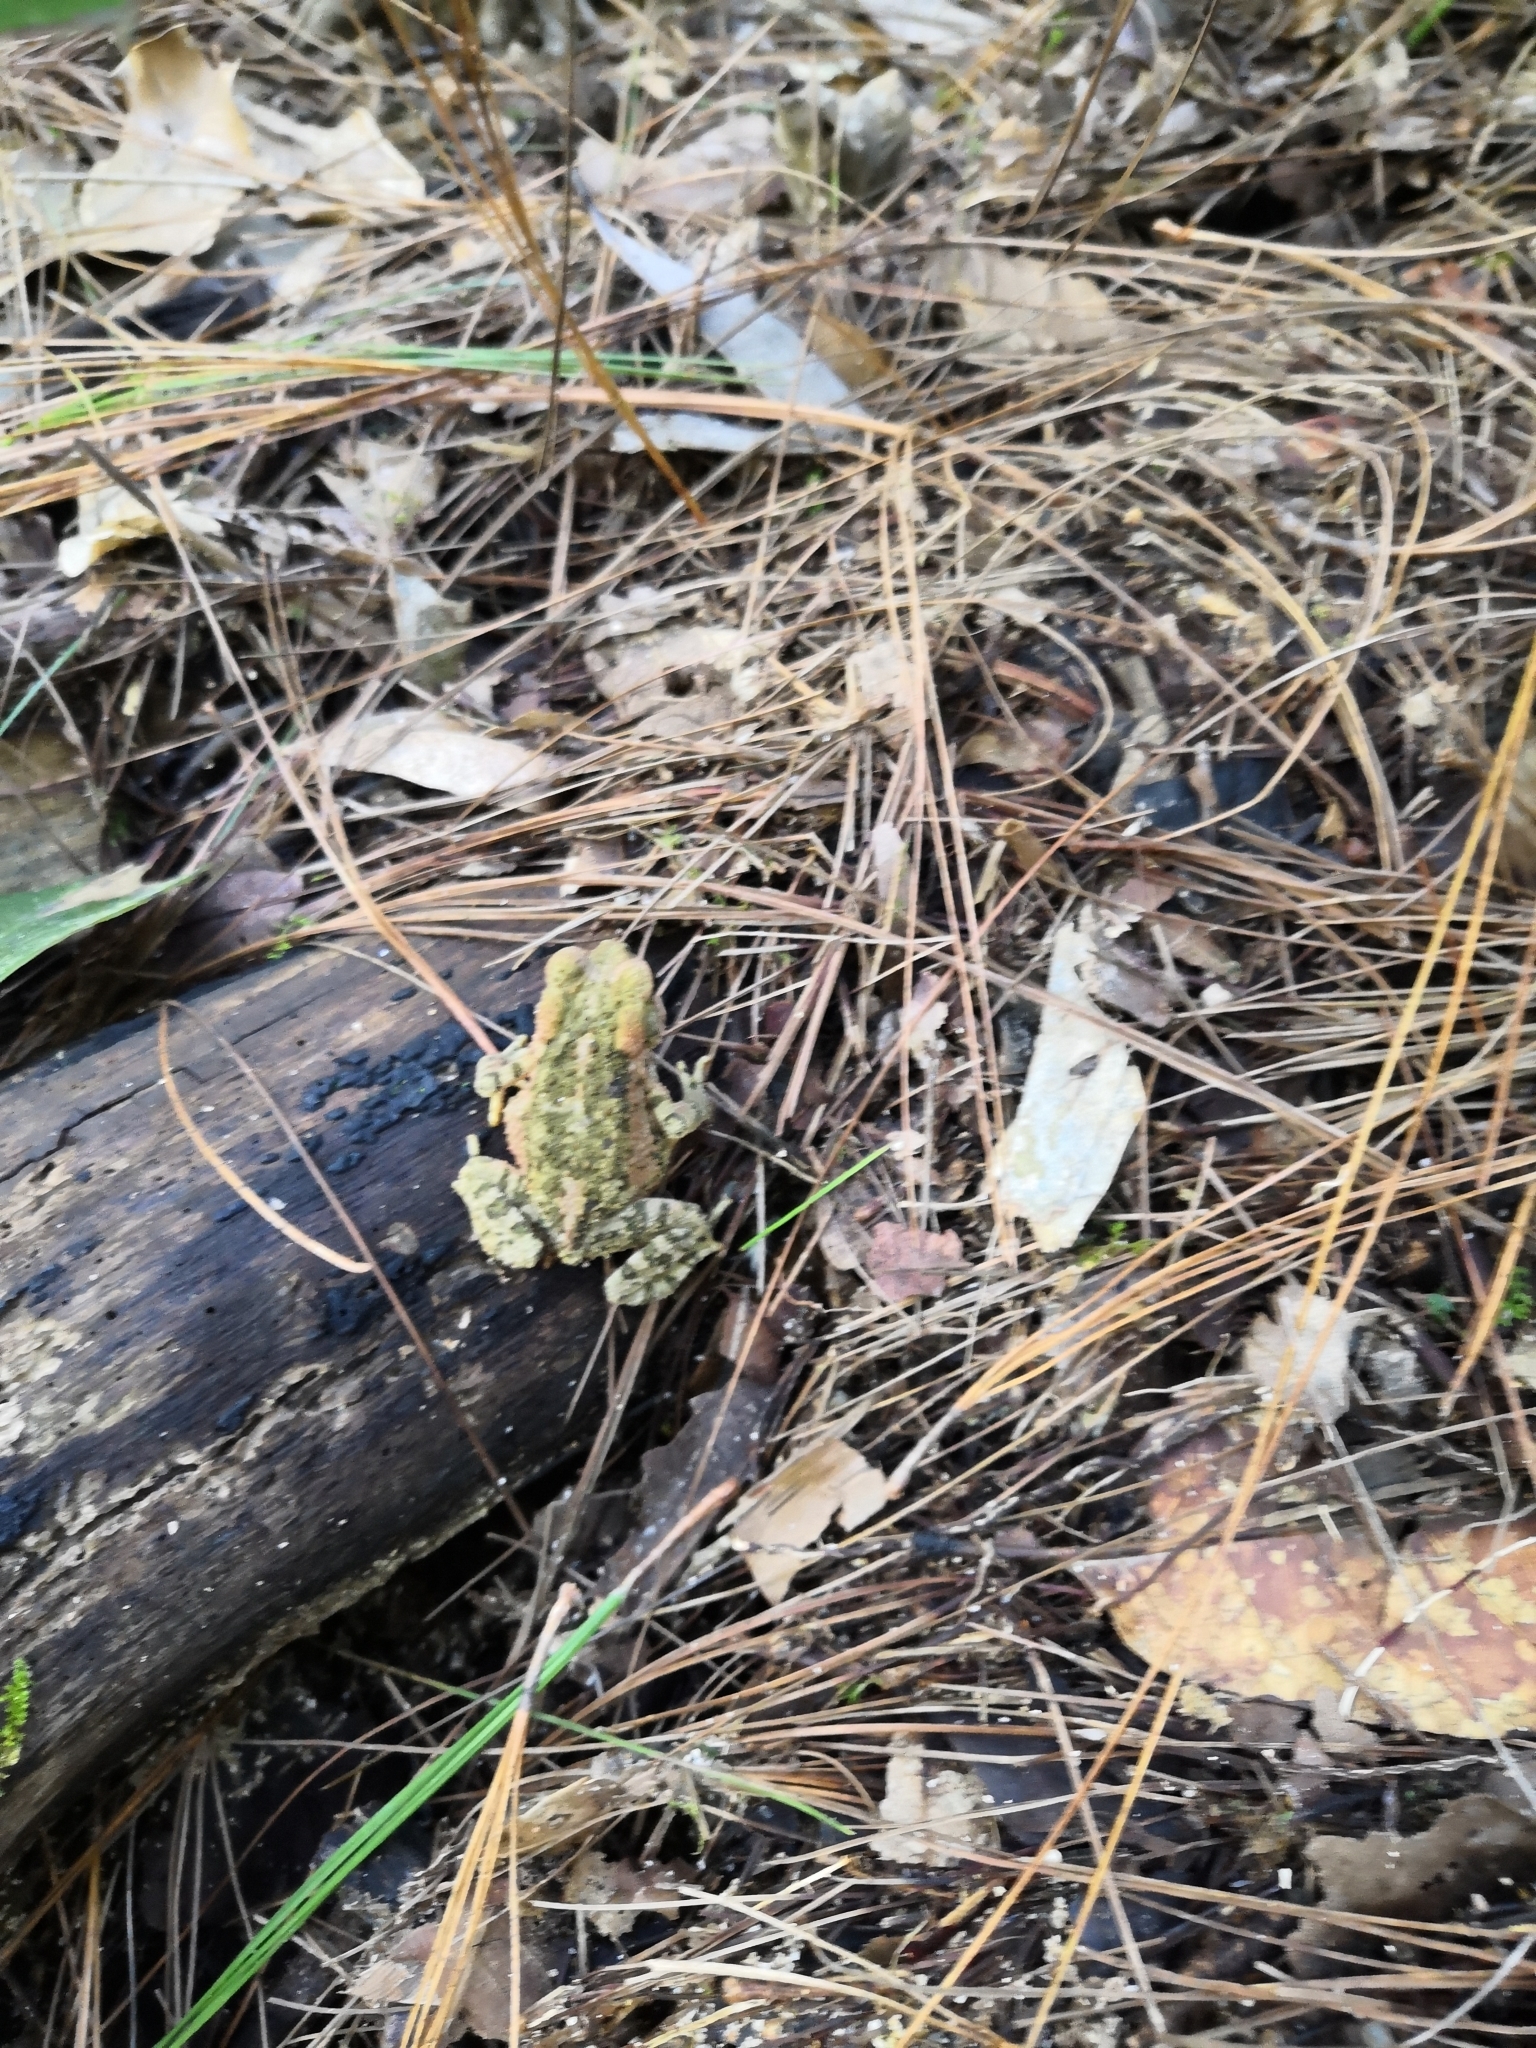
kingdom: Animalia
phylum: Chordata
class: Amphibia
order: Anura
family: Bufonidae
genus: Incilius
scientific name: Incilius occidentalis
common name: Pine toad
